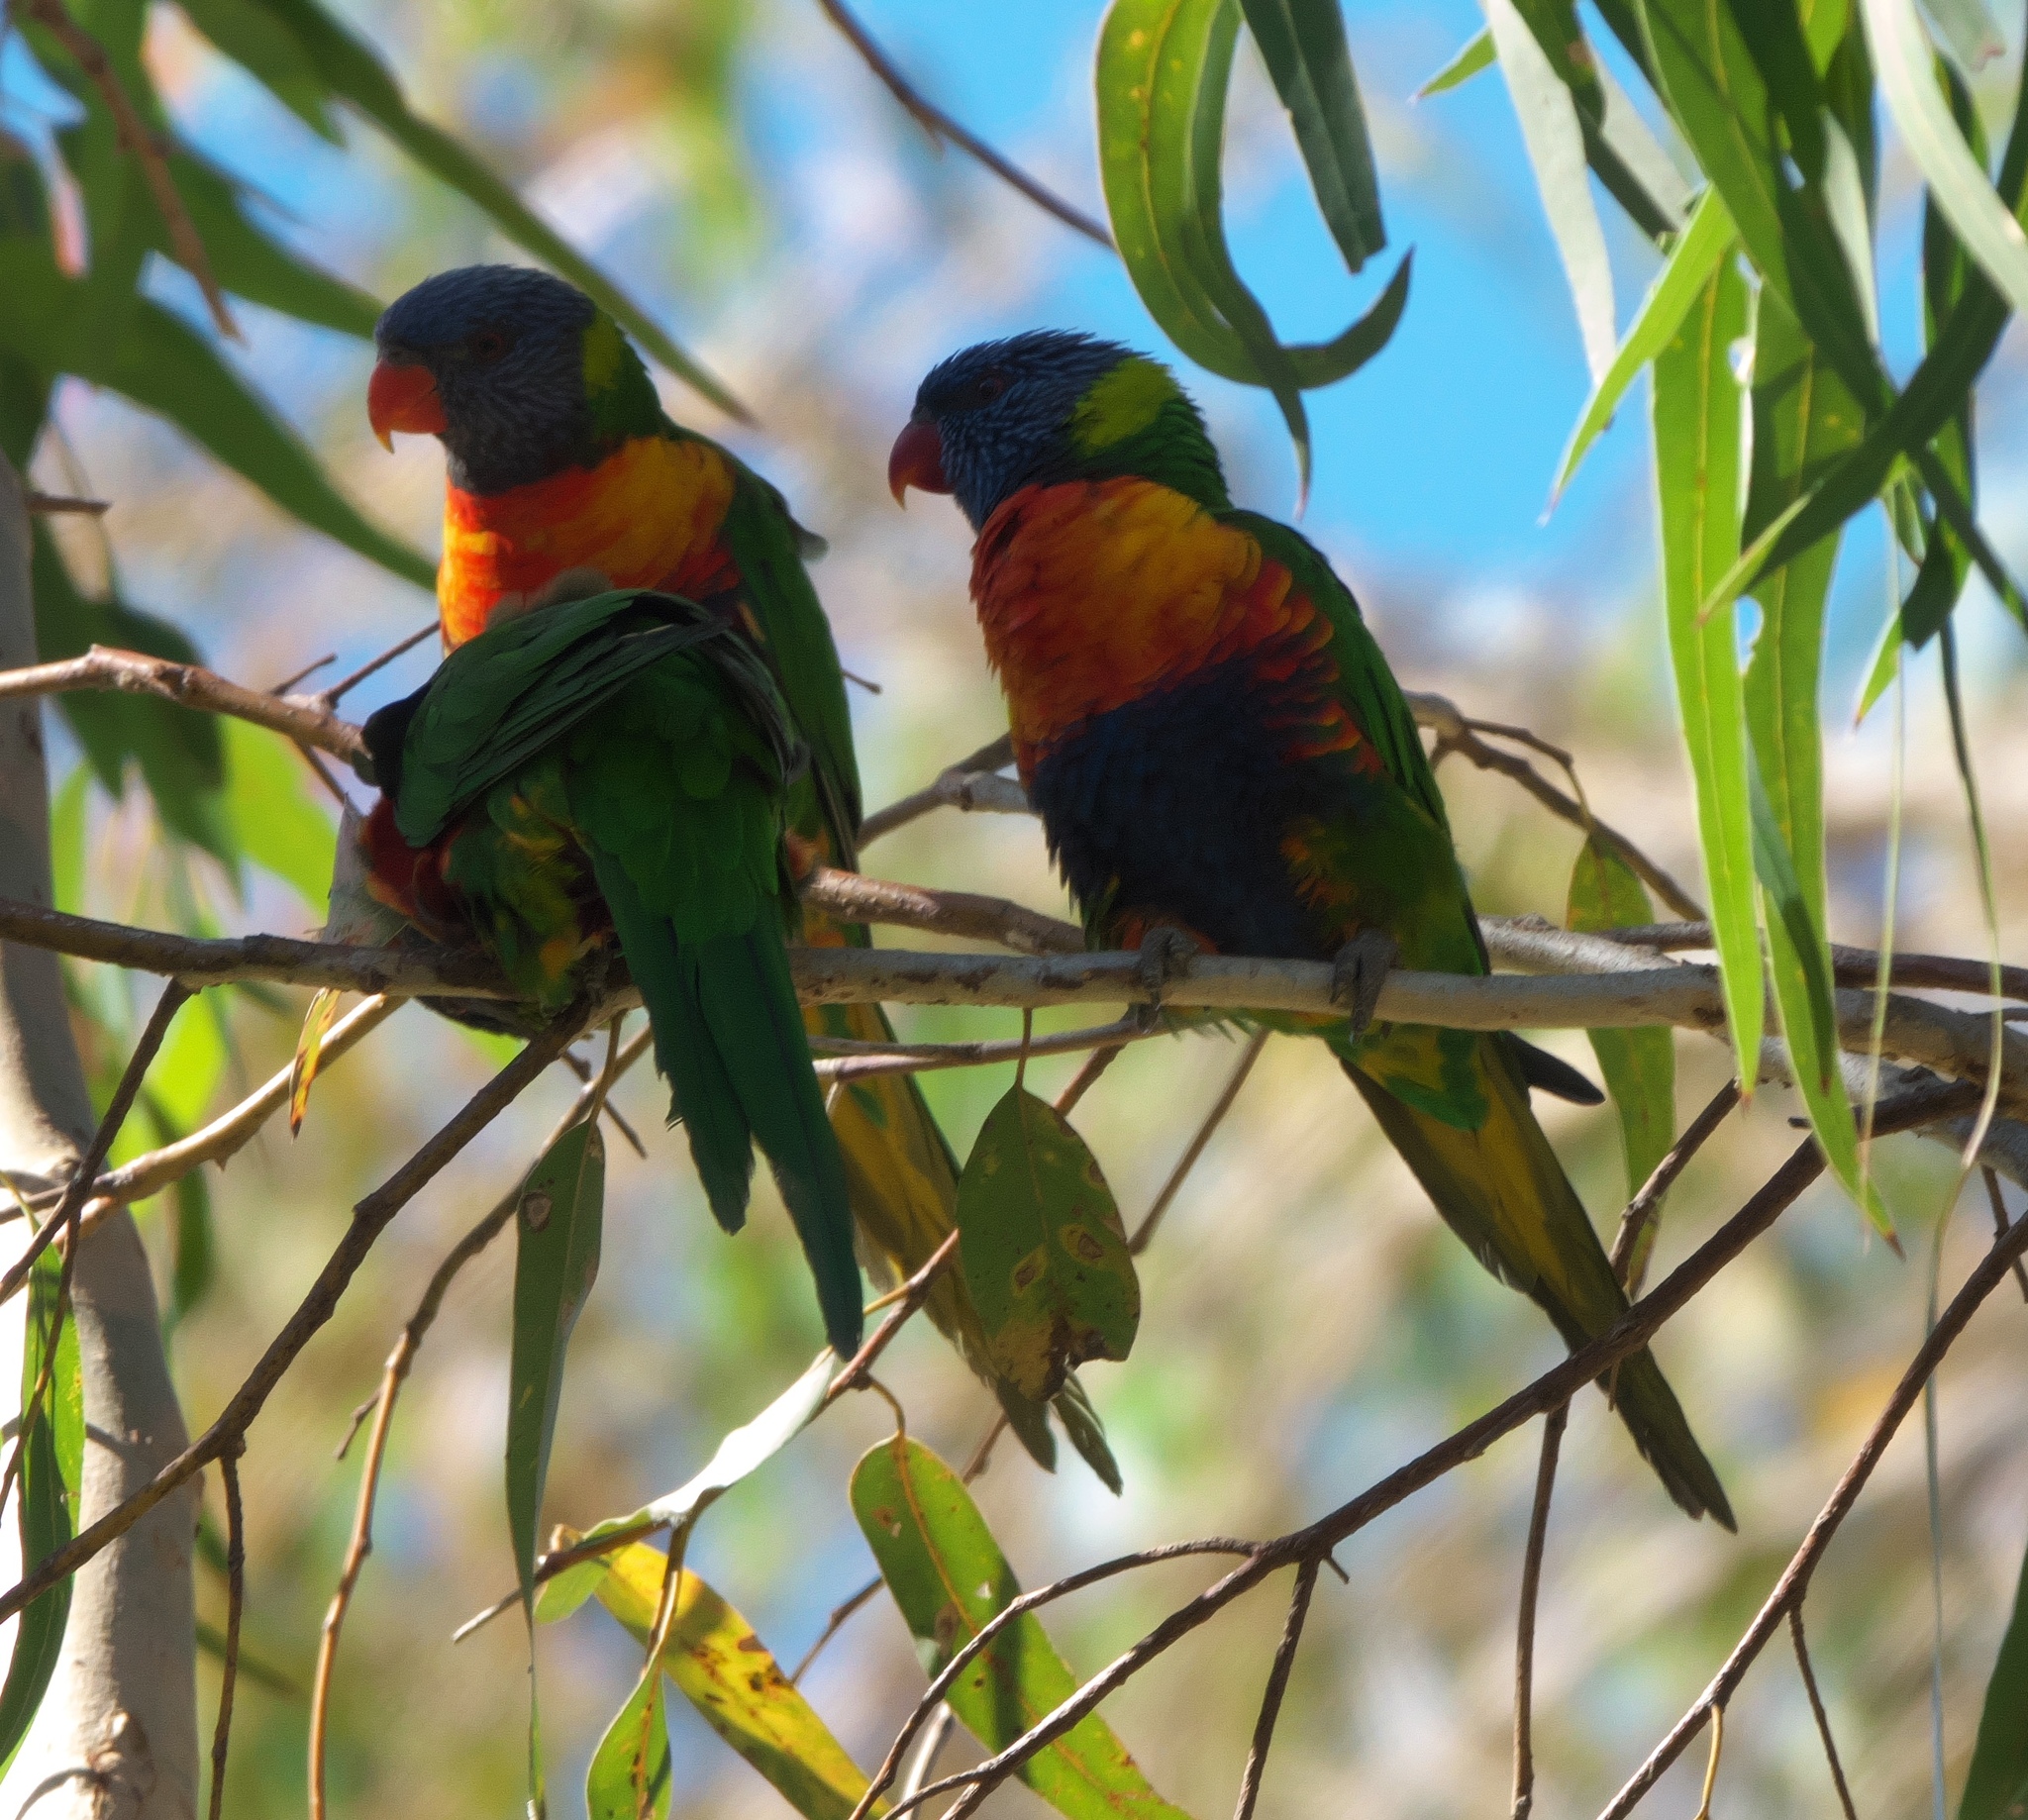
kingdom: Animalia
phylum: Chordata
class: Aves
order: Psittaciformes
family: Psittacidae
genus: Trichoglossus
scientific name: Trichoglossus haematodus
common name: Coconut lorikeet
